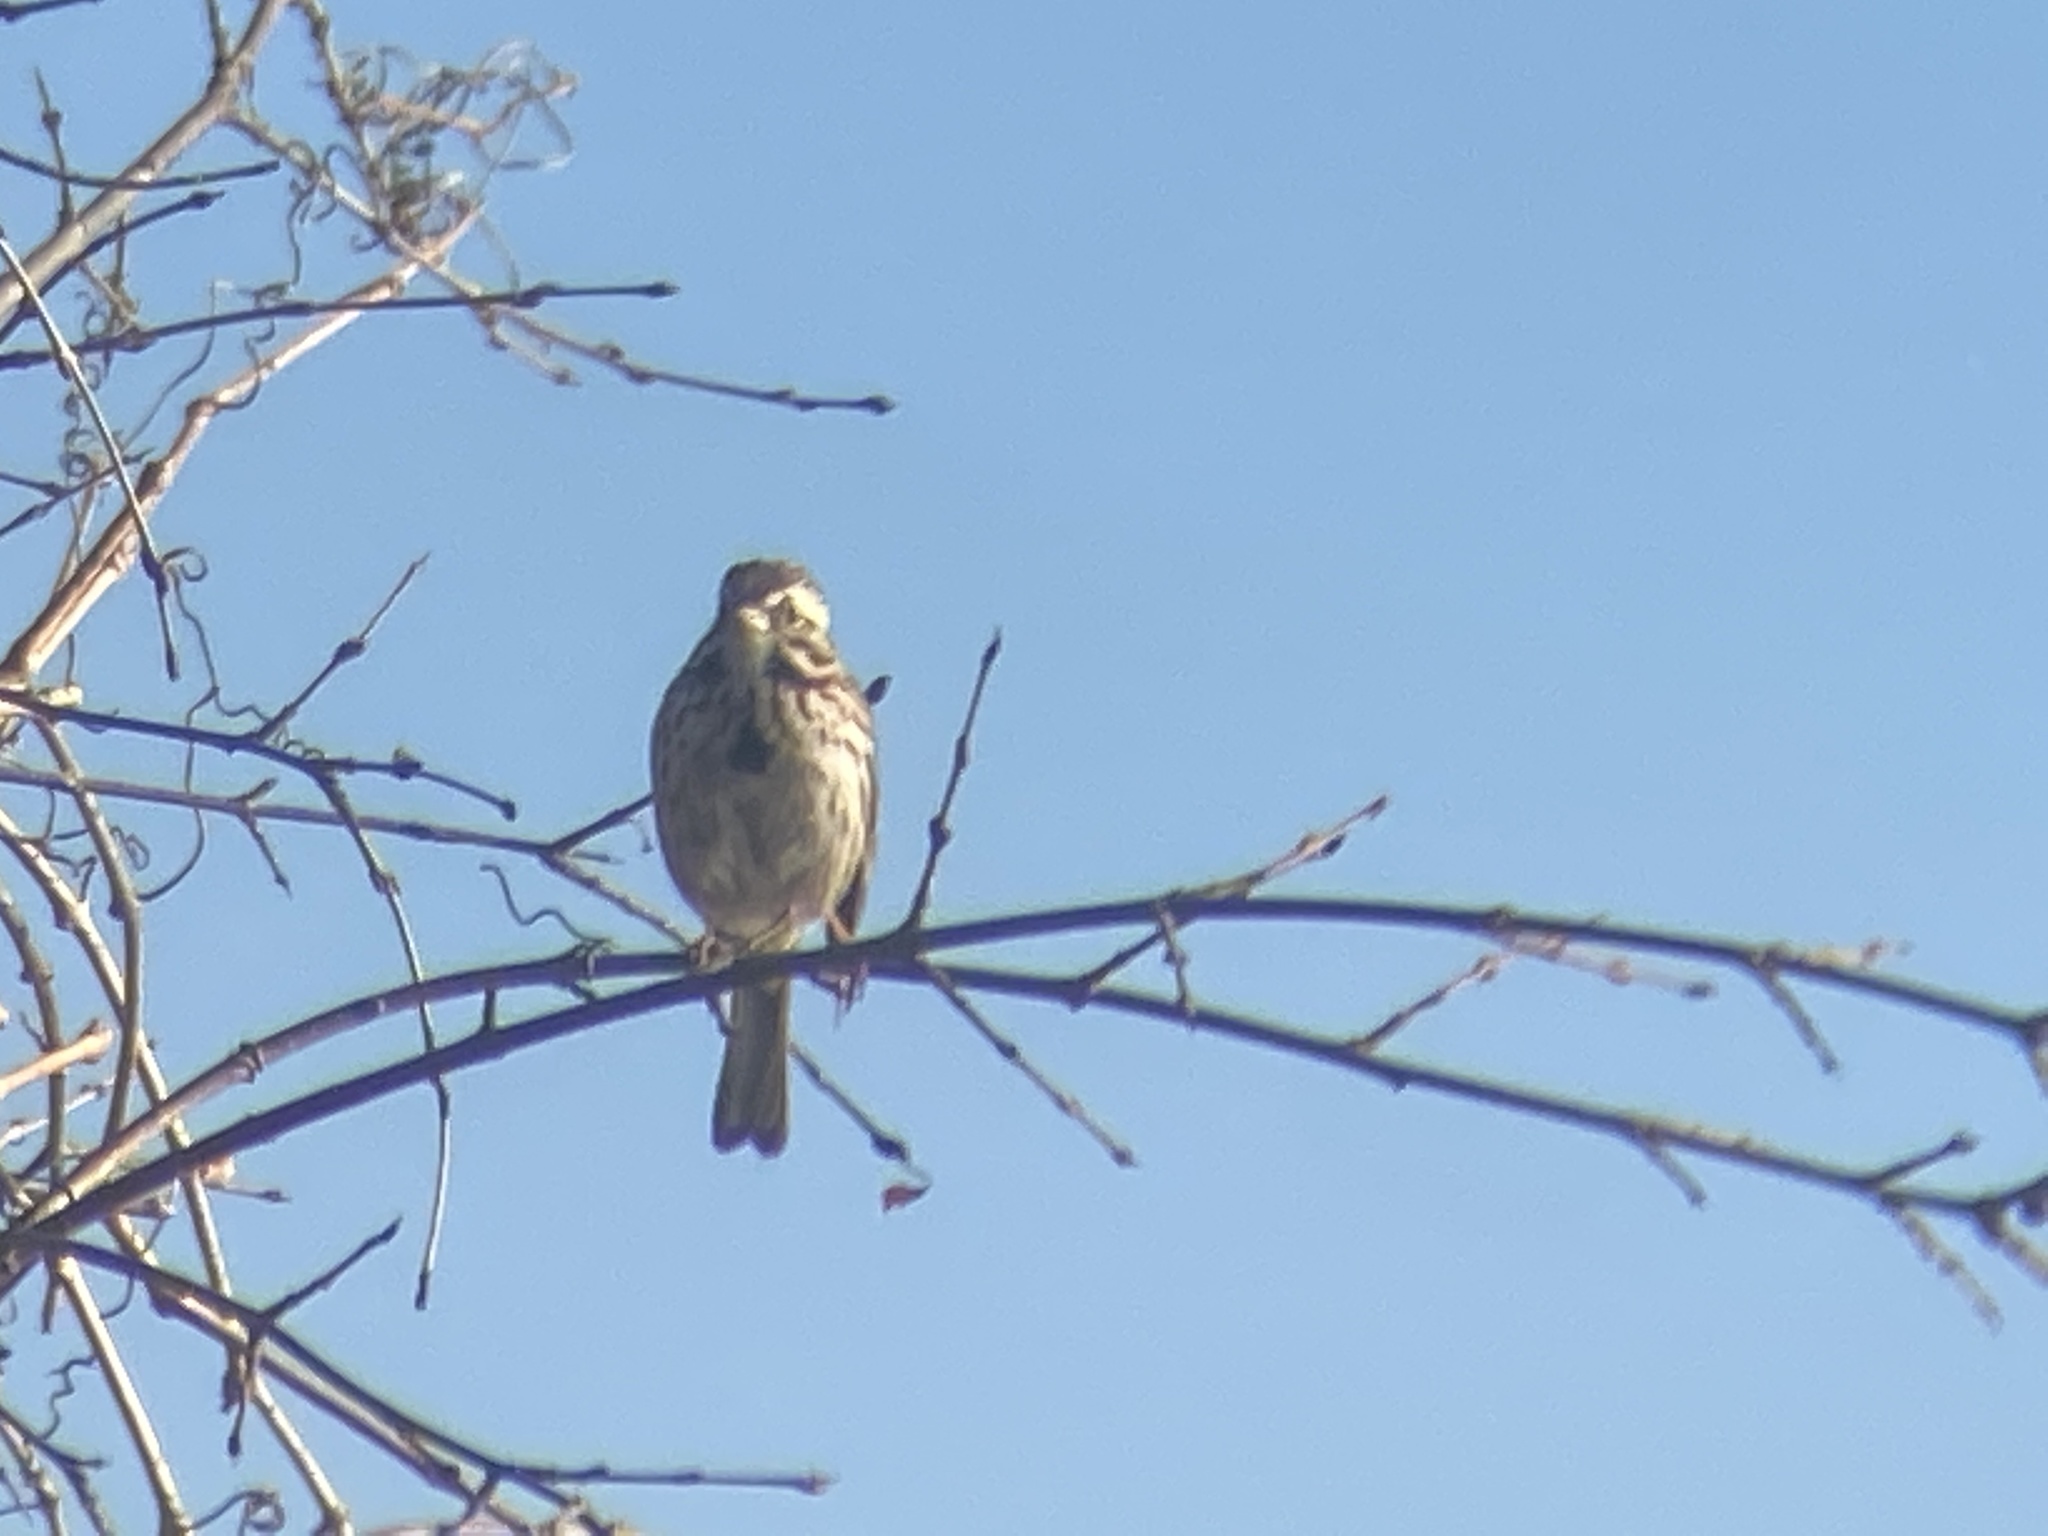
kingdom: Animalia
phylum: Chordata
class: Aves
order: Passeriformes
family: Passerellidae
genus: Melospiza
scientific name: Melospiza melodia
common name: Song sparrow
